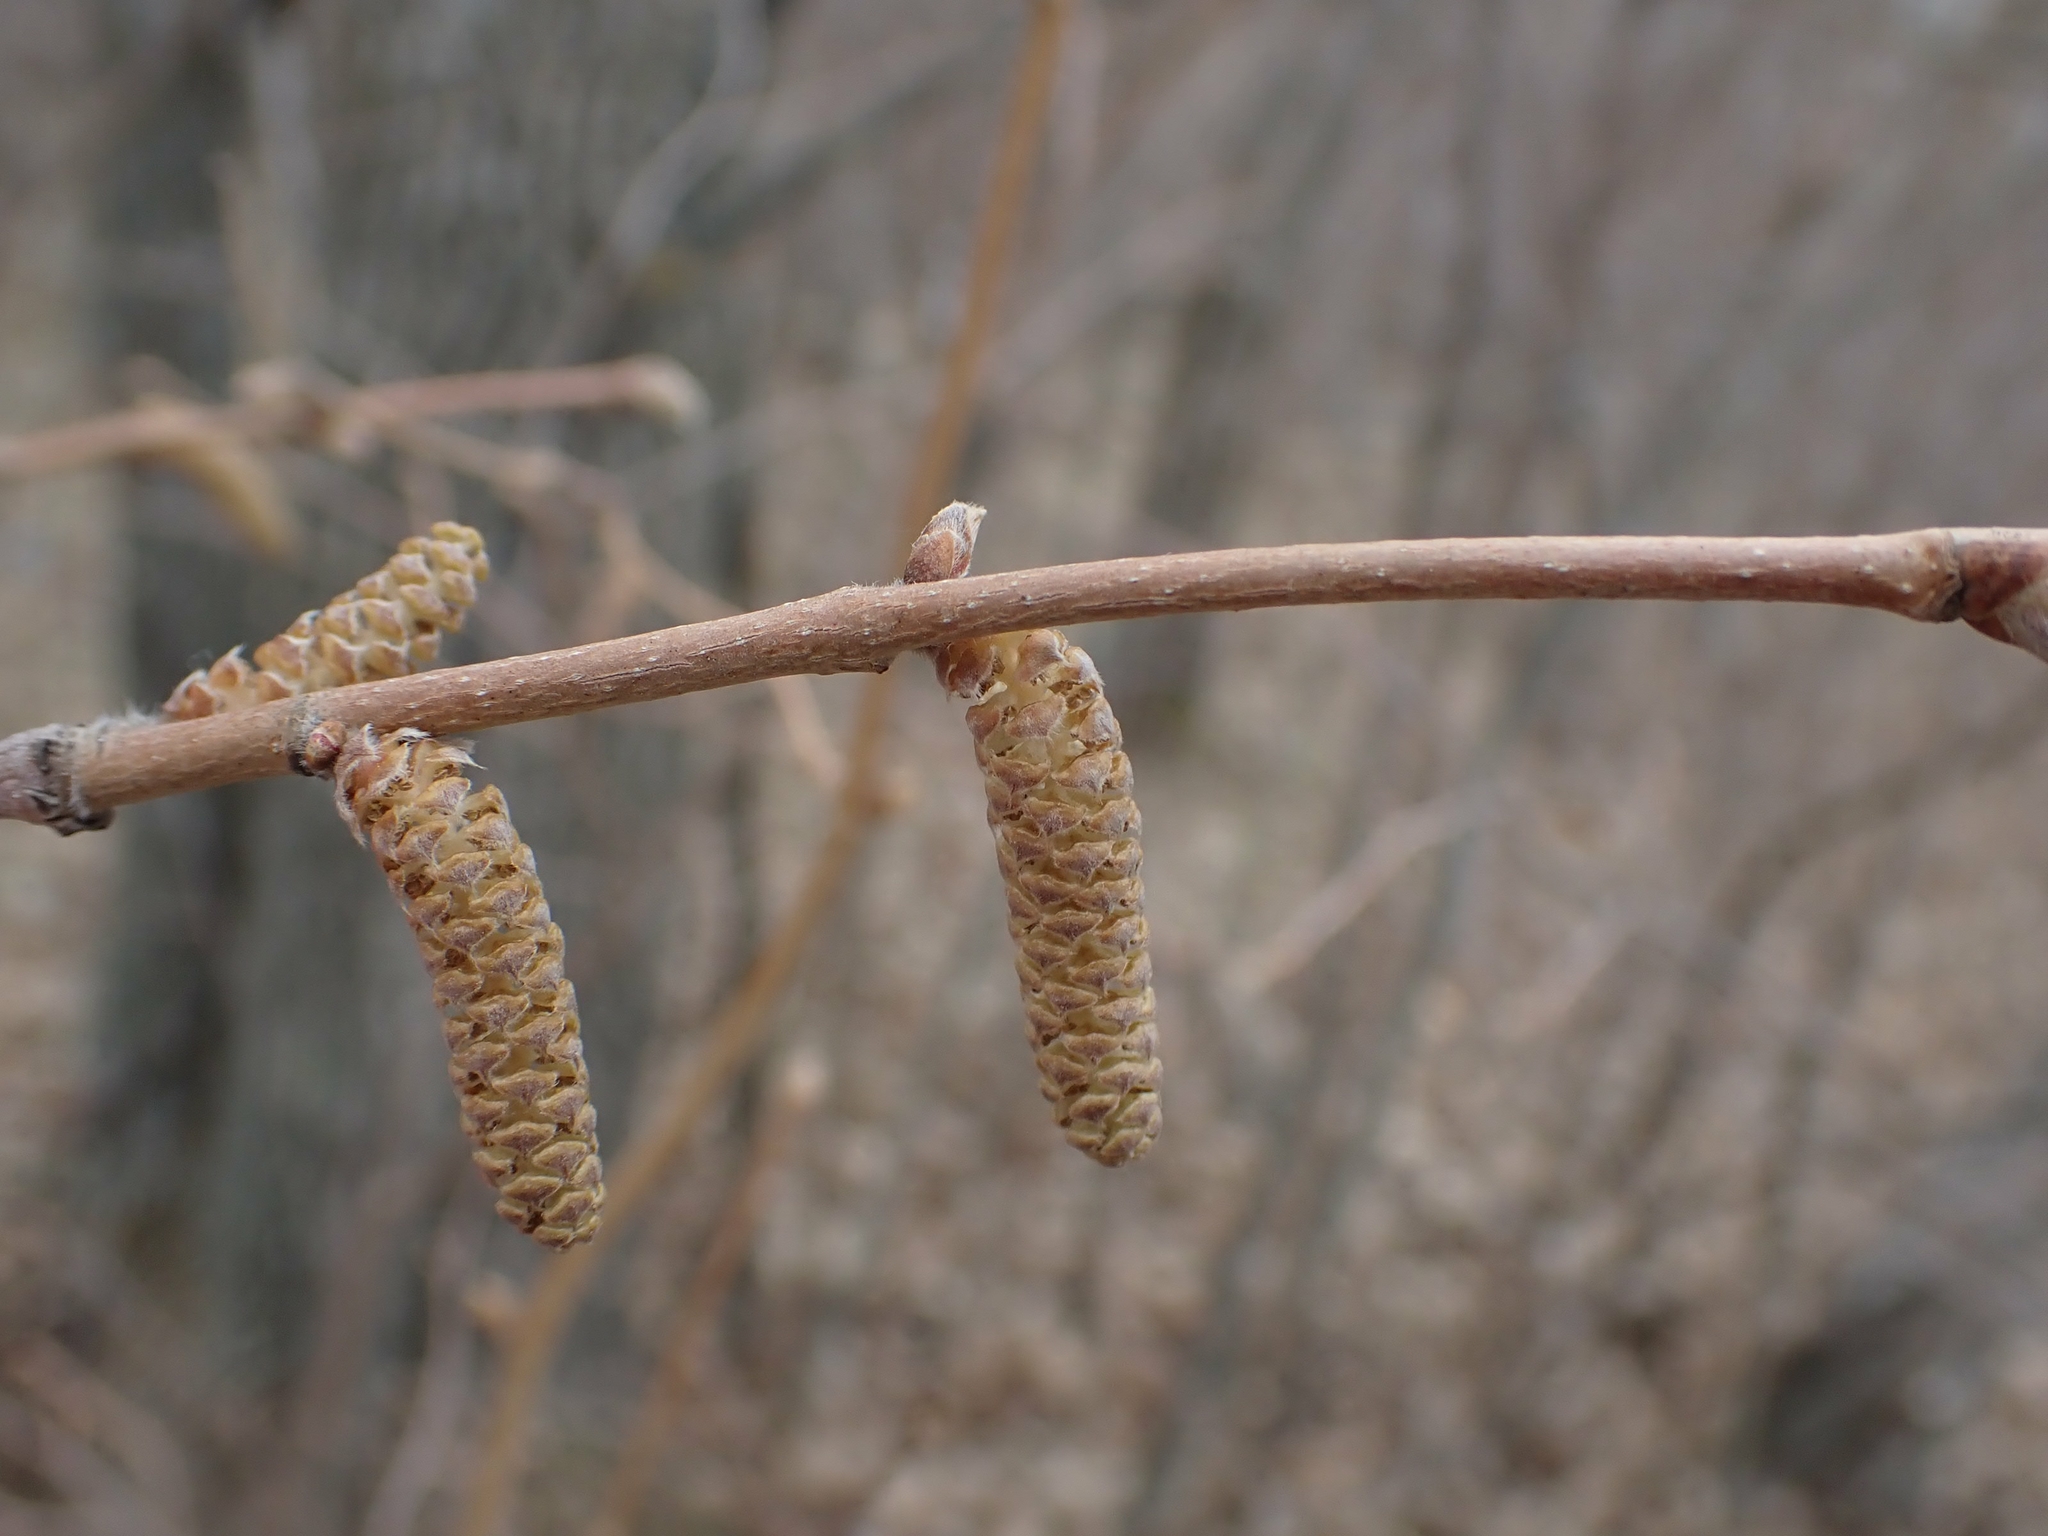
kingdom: Plantae
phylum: Tracheophyta
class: Magnoliopsida
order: Fagales
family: Betulaceae
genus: Corylus
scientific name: Corylus cornuta
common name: Beaked hazel
